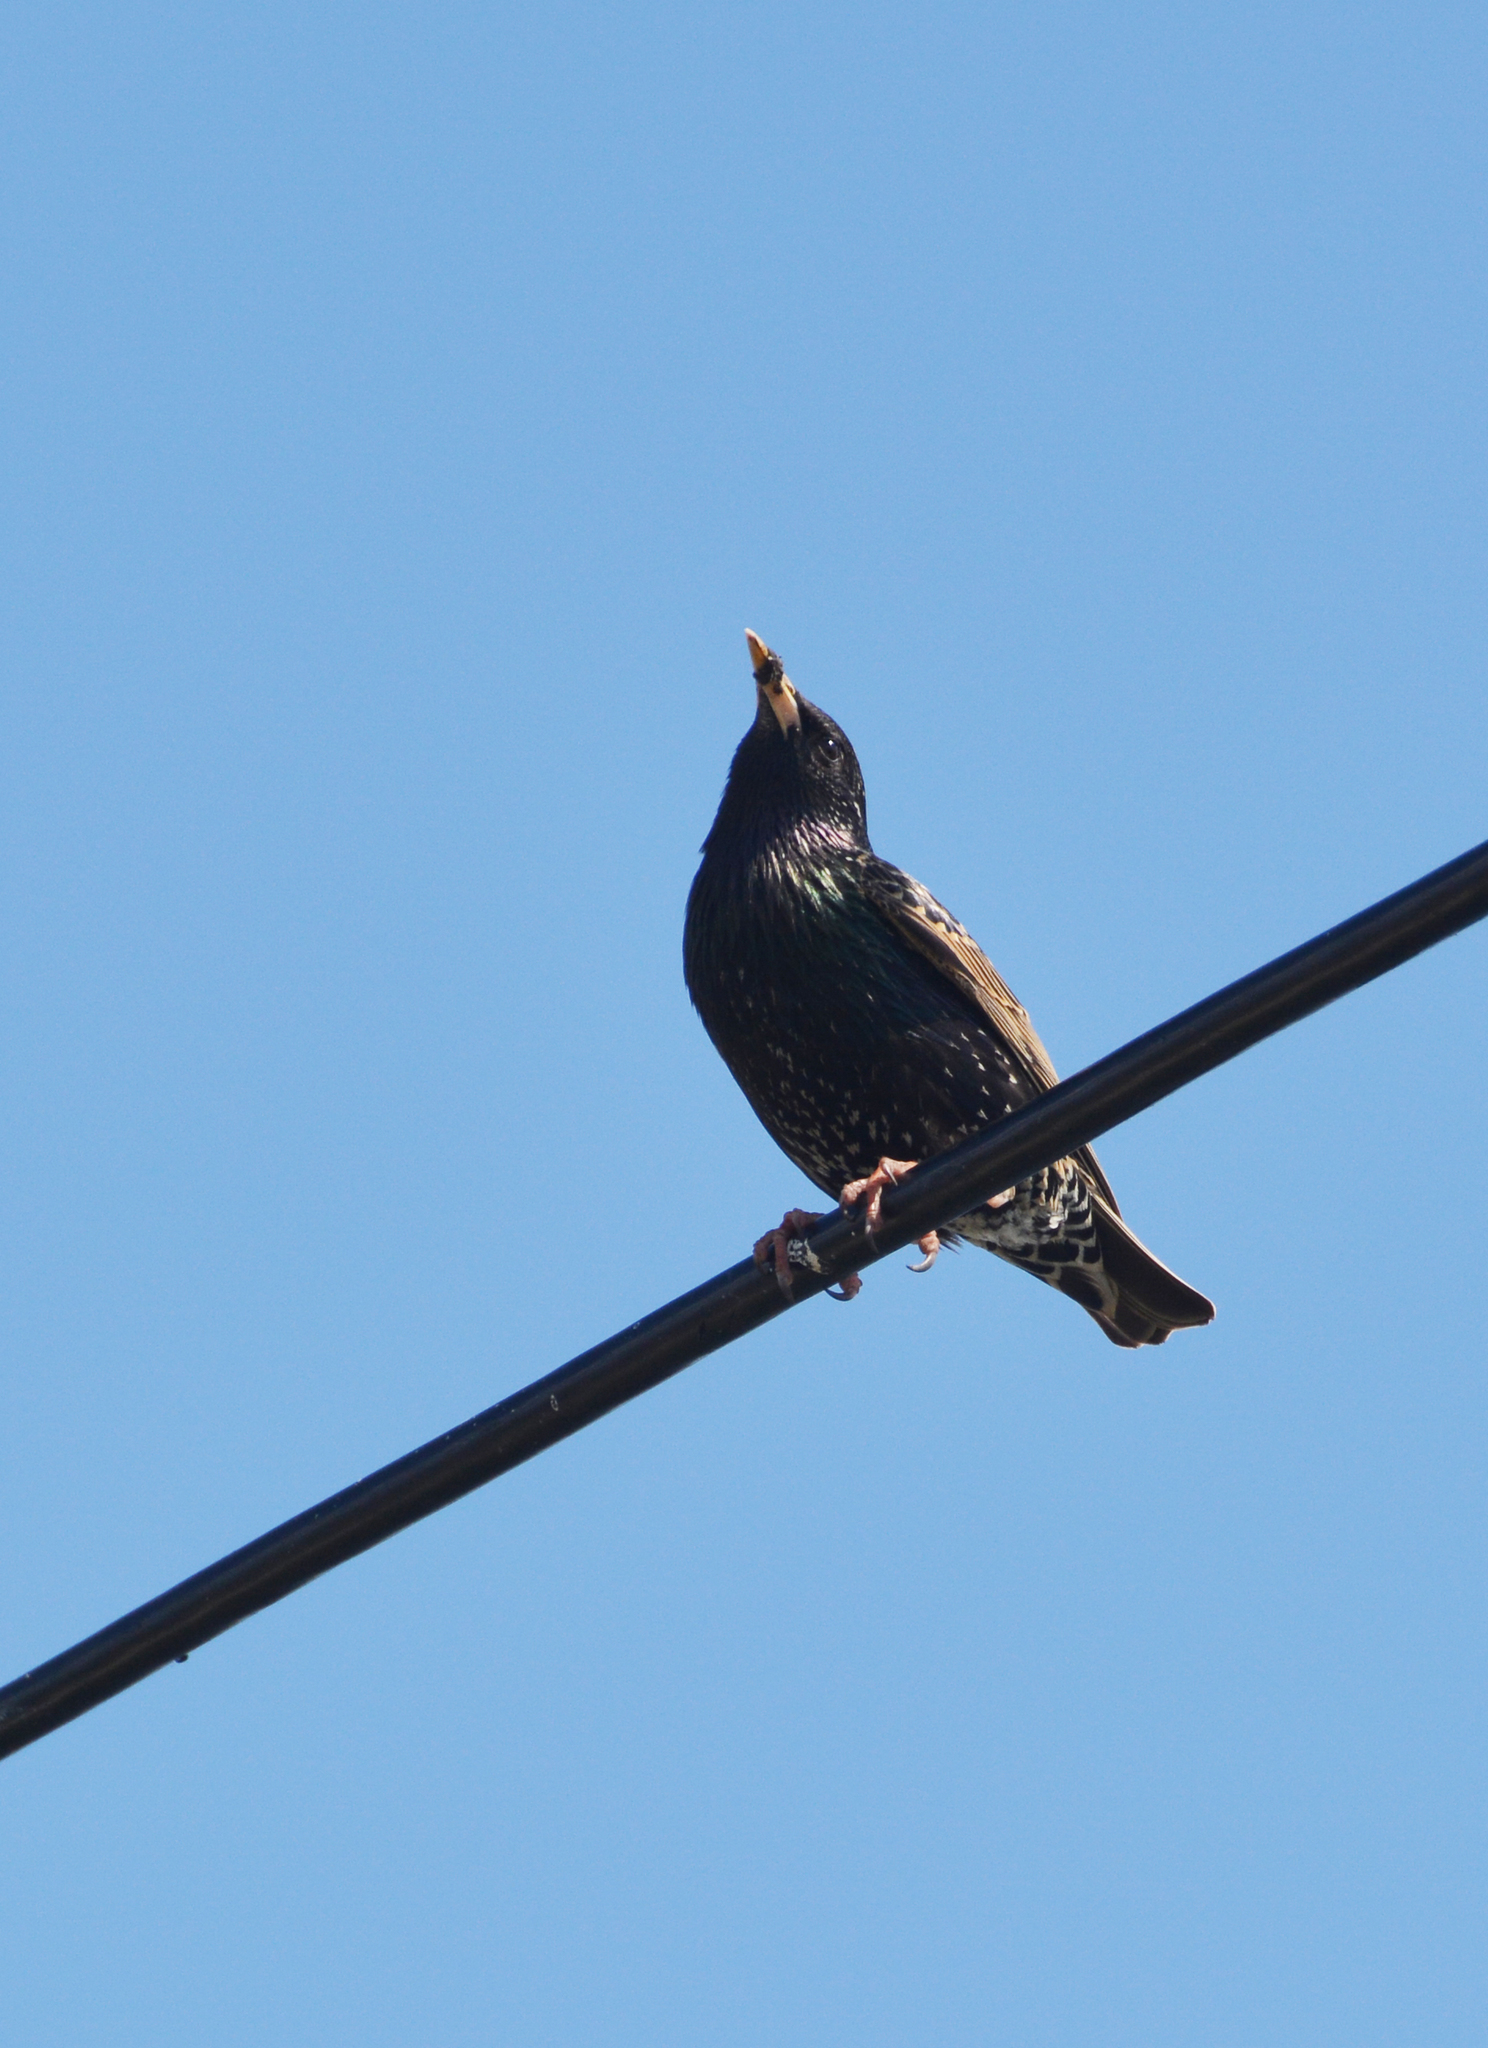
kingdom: Animalia
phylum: Chordata
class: Aves
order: Passeriformes
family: Sturnidae
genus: Sturnus
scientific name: Sturnus vulgaris
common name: Common starling
